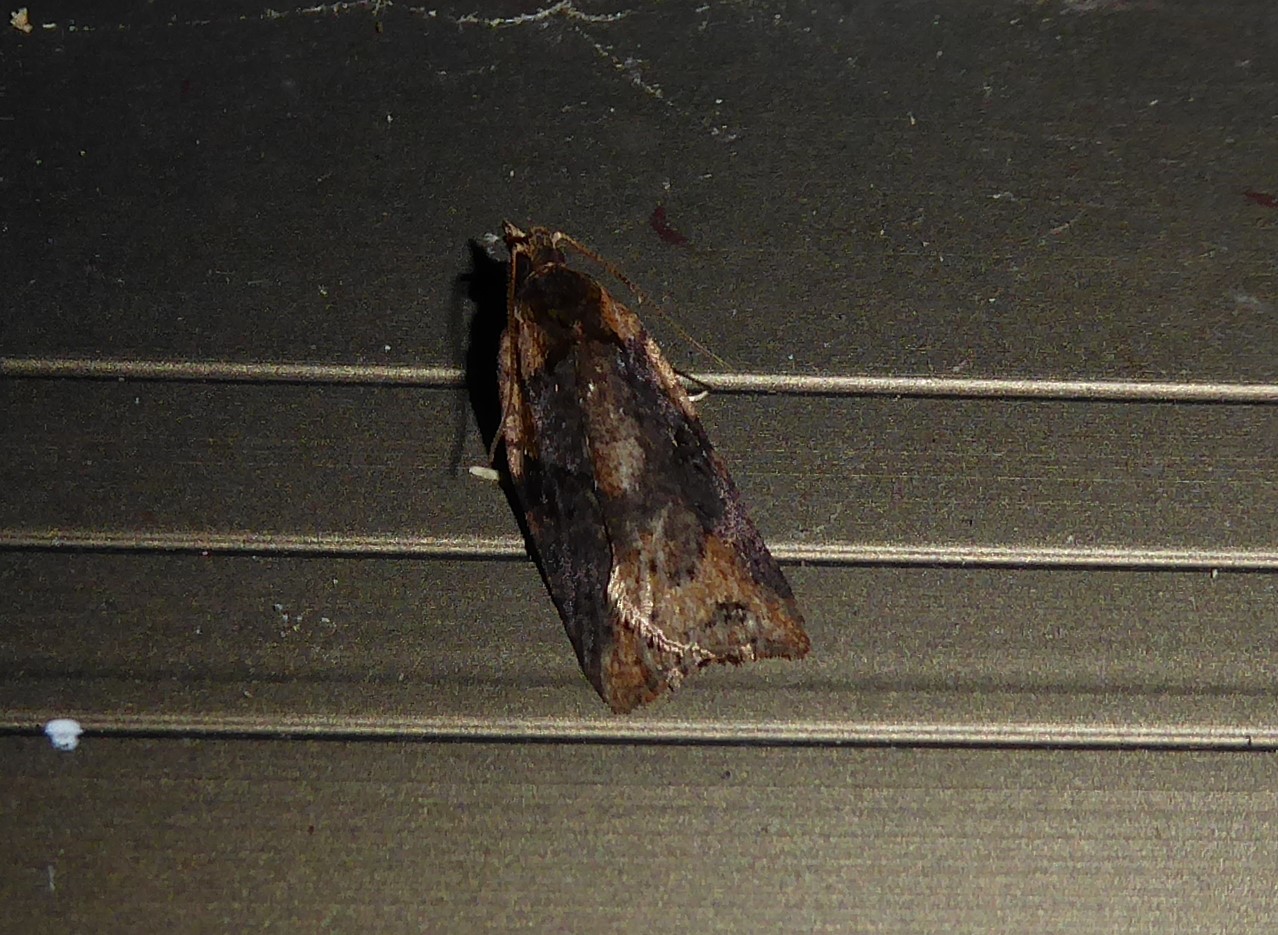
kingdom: Animalia
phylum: Arthropoda
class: Insecta
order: Lepidoptera
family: Tortricidae
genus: Capua
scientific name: Capua intractana
